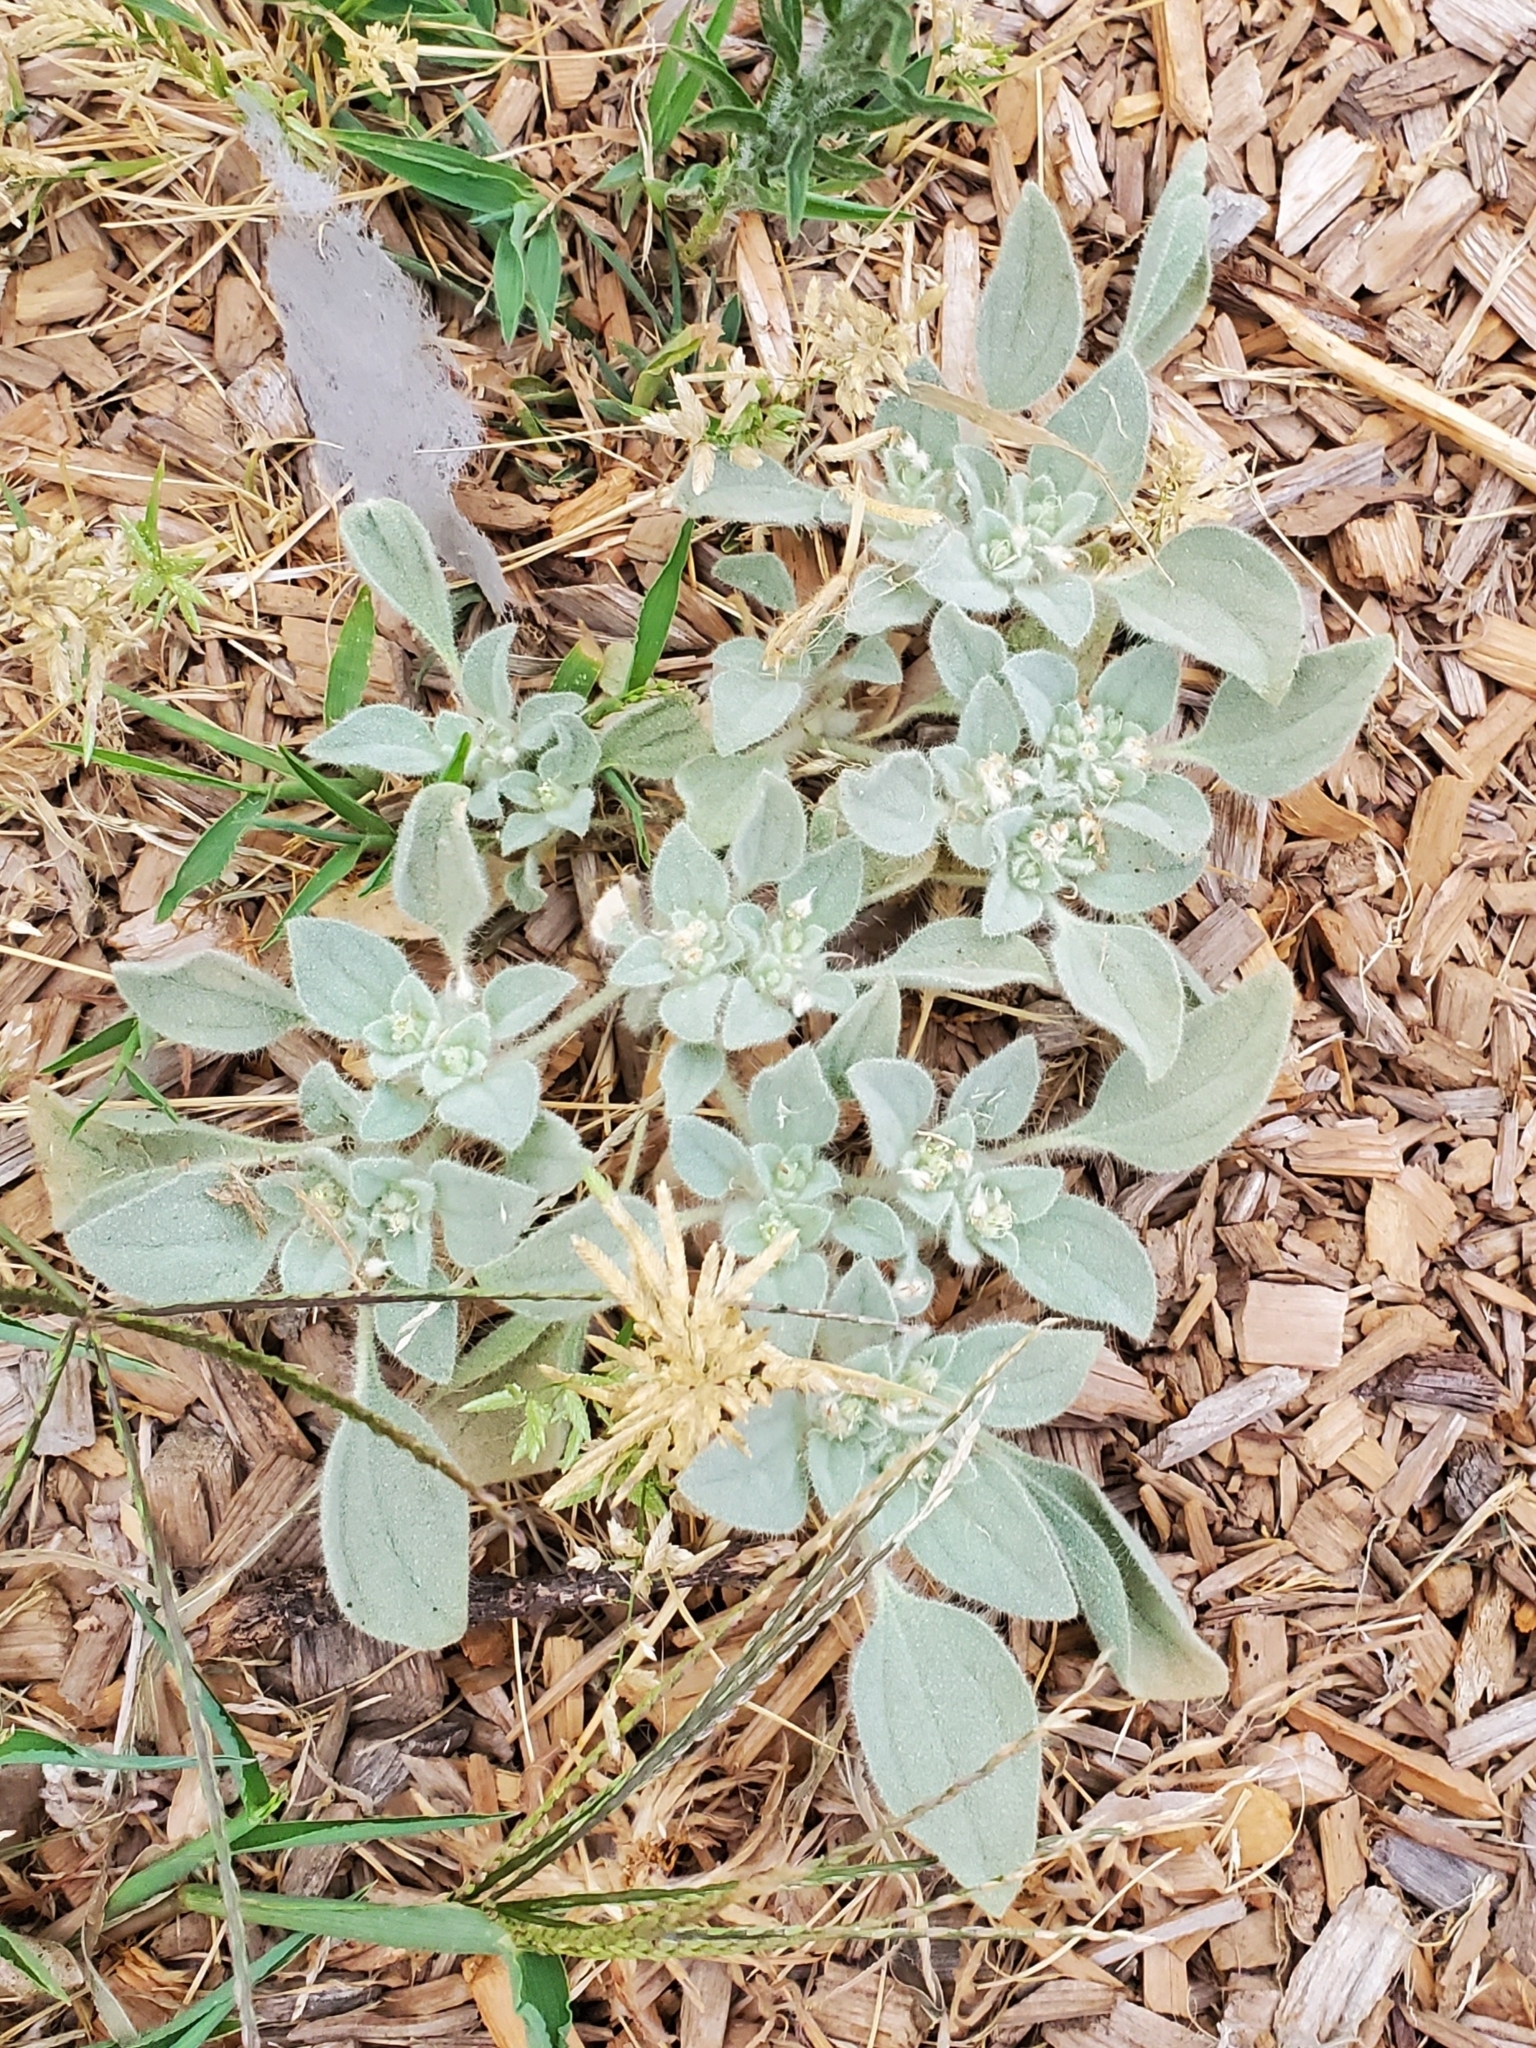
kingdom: Plantae
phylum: Tracheophyta
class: Magnoliopsida
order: Malpighiales
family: Euphorbiaceae
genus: Croton
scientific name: Croton setiger
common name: Dove weed
